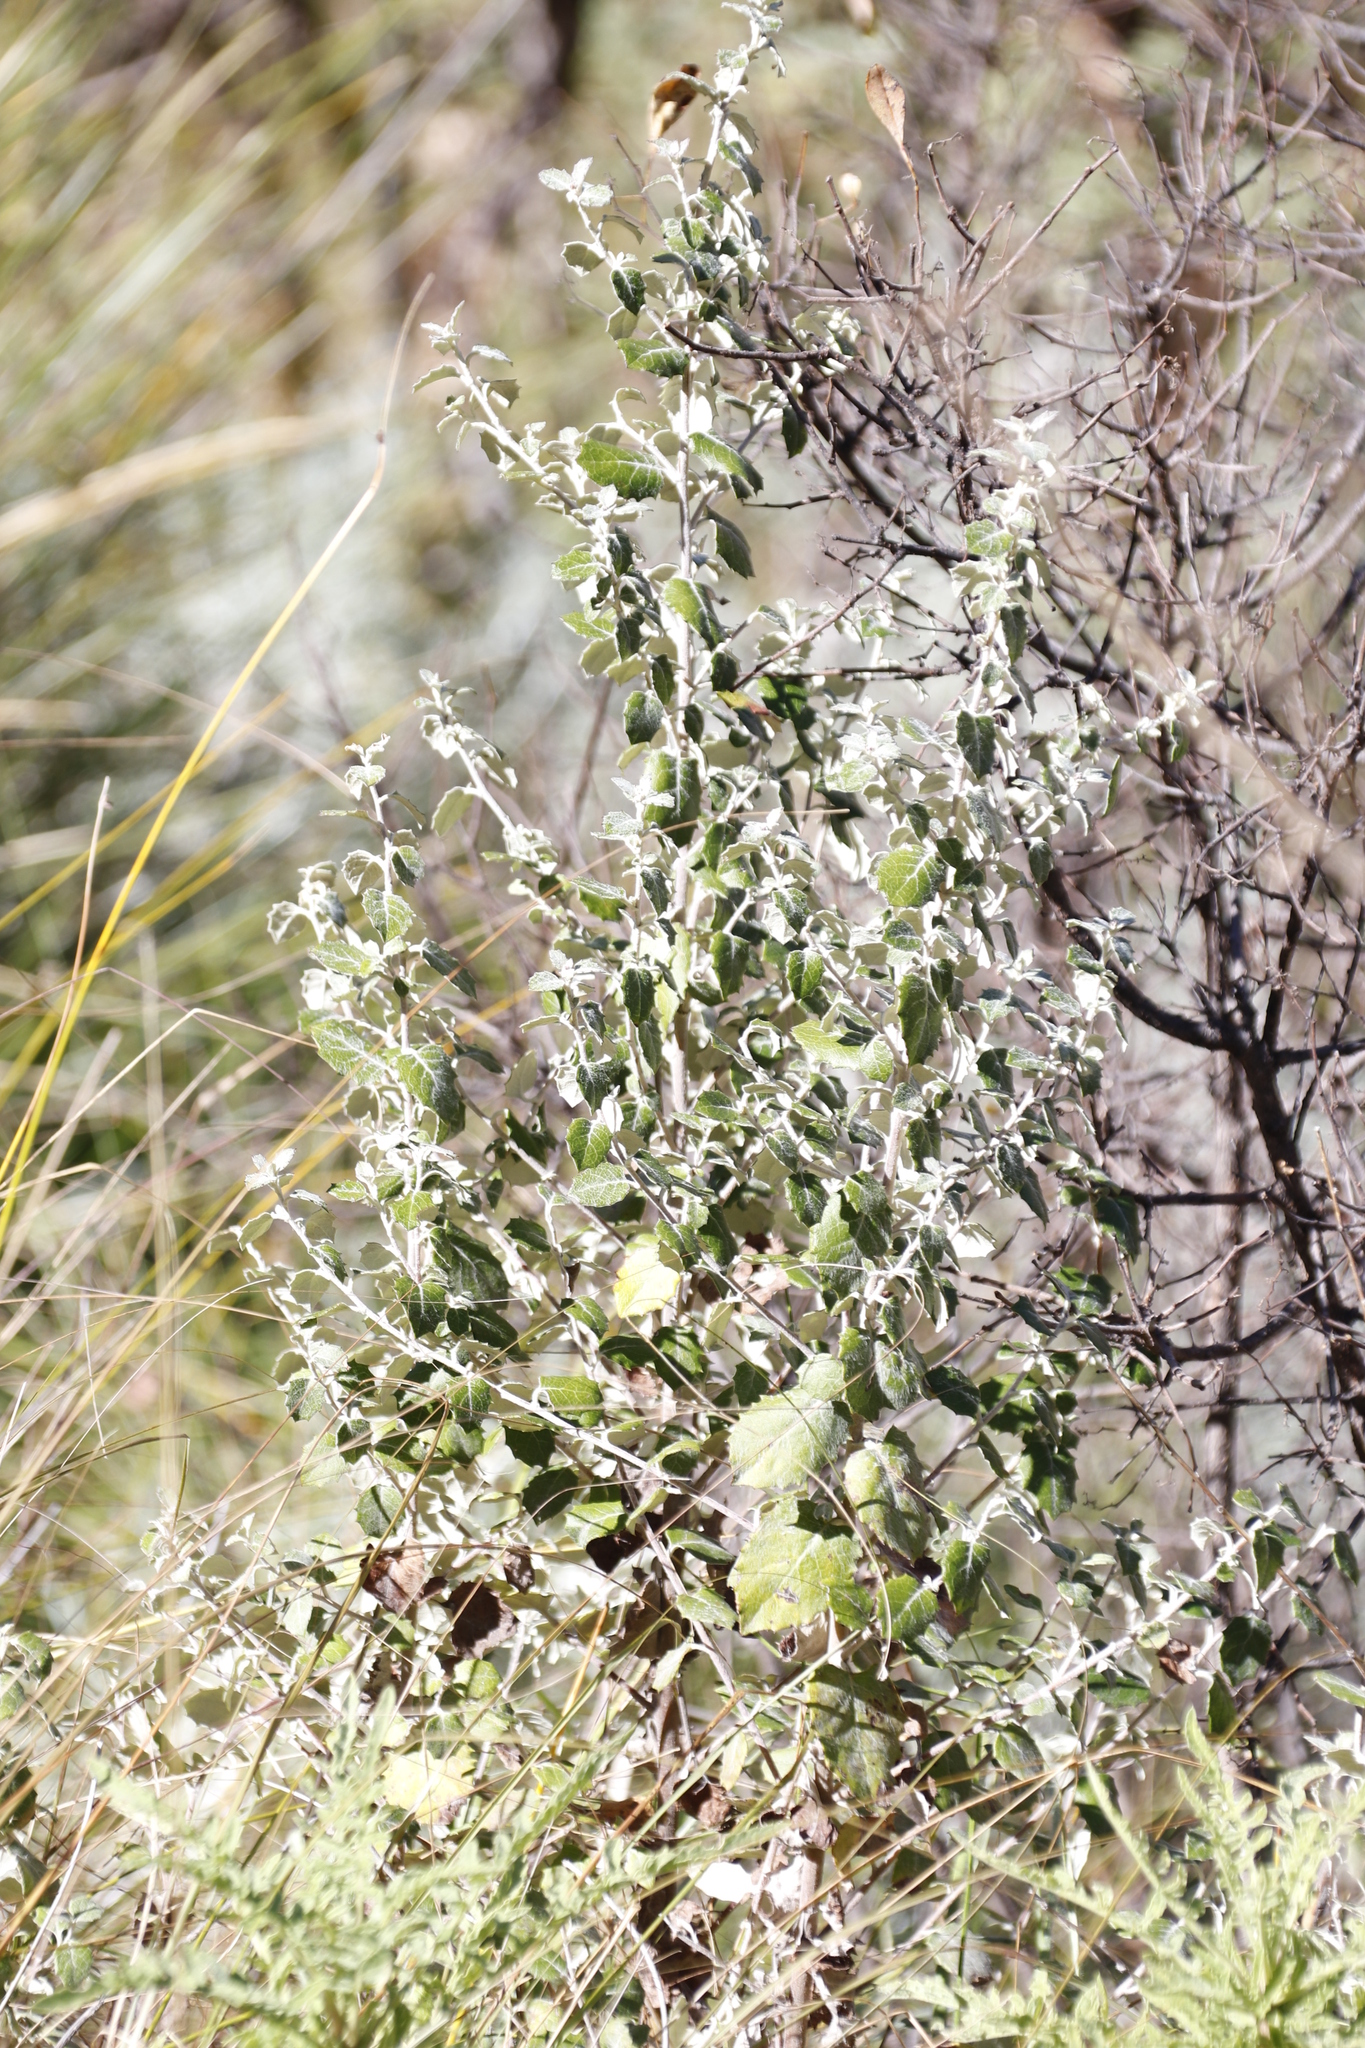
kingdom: Plantae
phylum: Tracheophyta
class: Magnoliopsida
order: Asterales
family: Asteraceae
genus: Printzia
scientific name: Printzia auriculata
